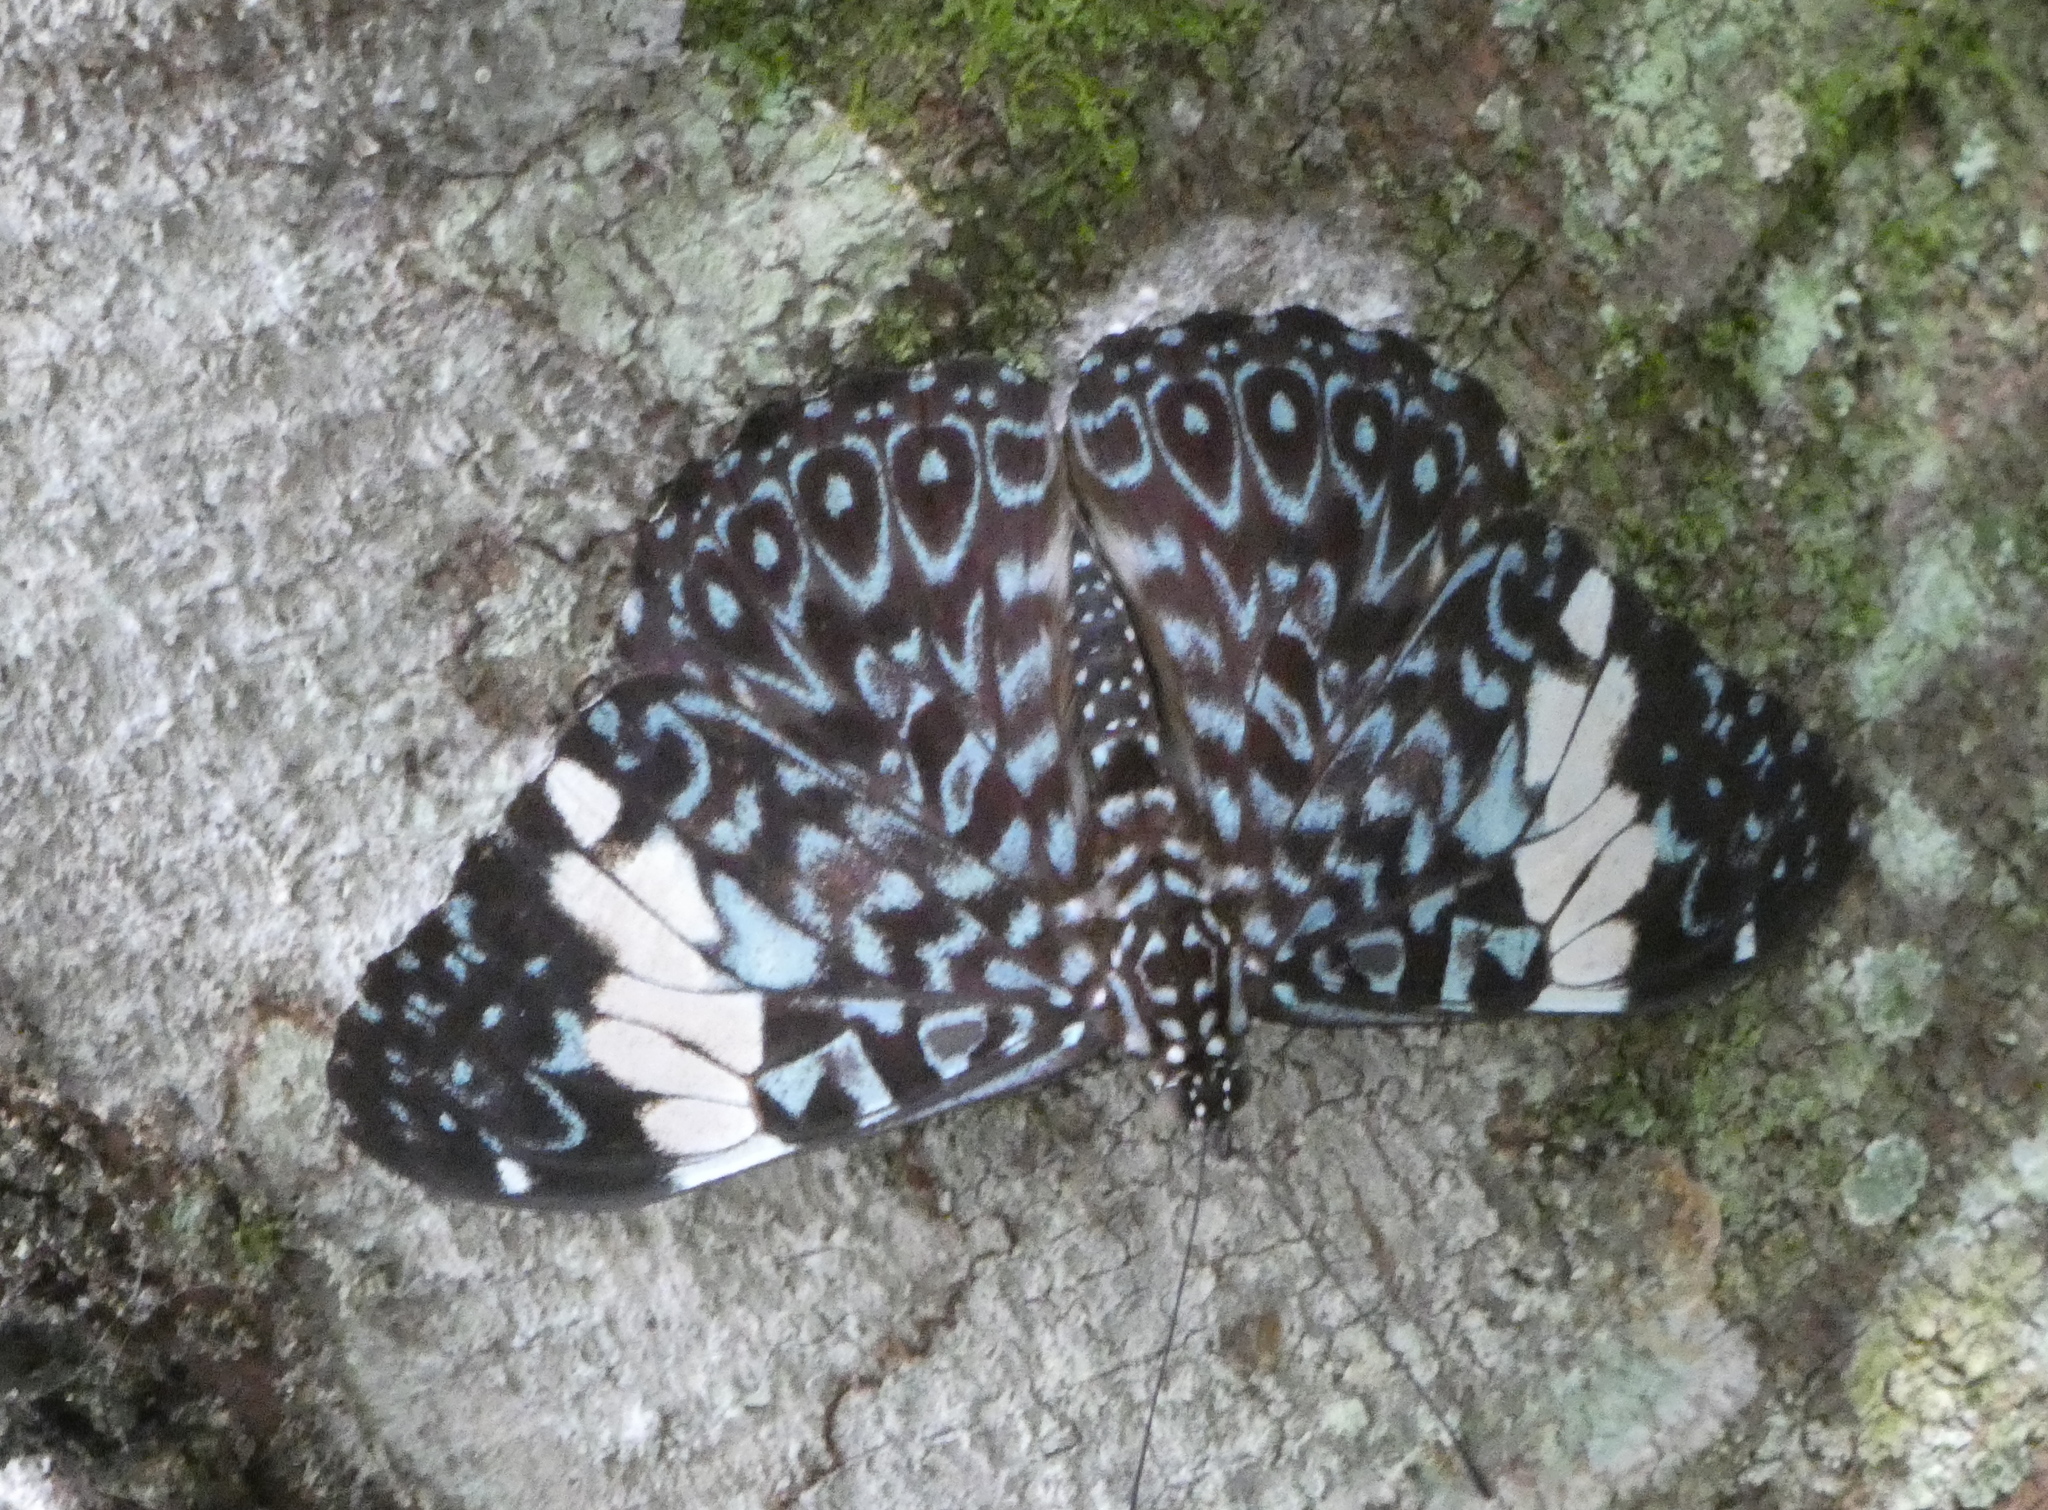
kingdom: Animalia
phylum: Arthropoda
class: Insecta
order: Lepidoptera
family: Nymphalidae
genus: Hamadryas
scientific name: Hamadryas amphinome
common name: Red cracker
